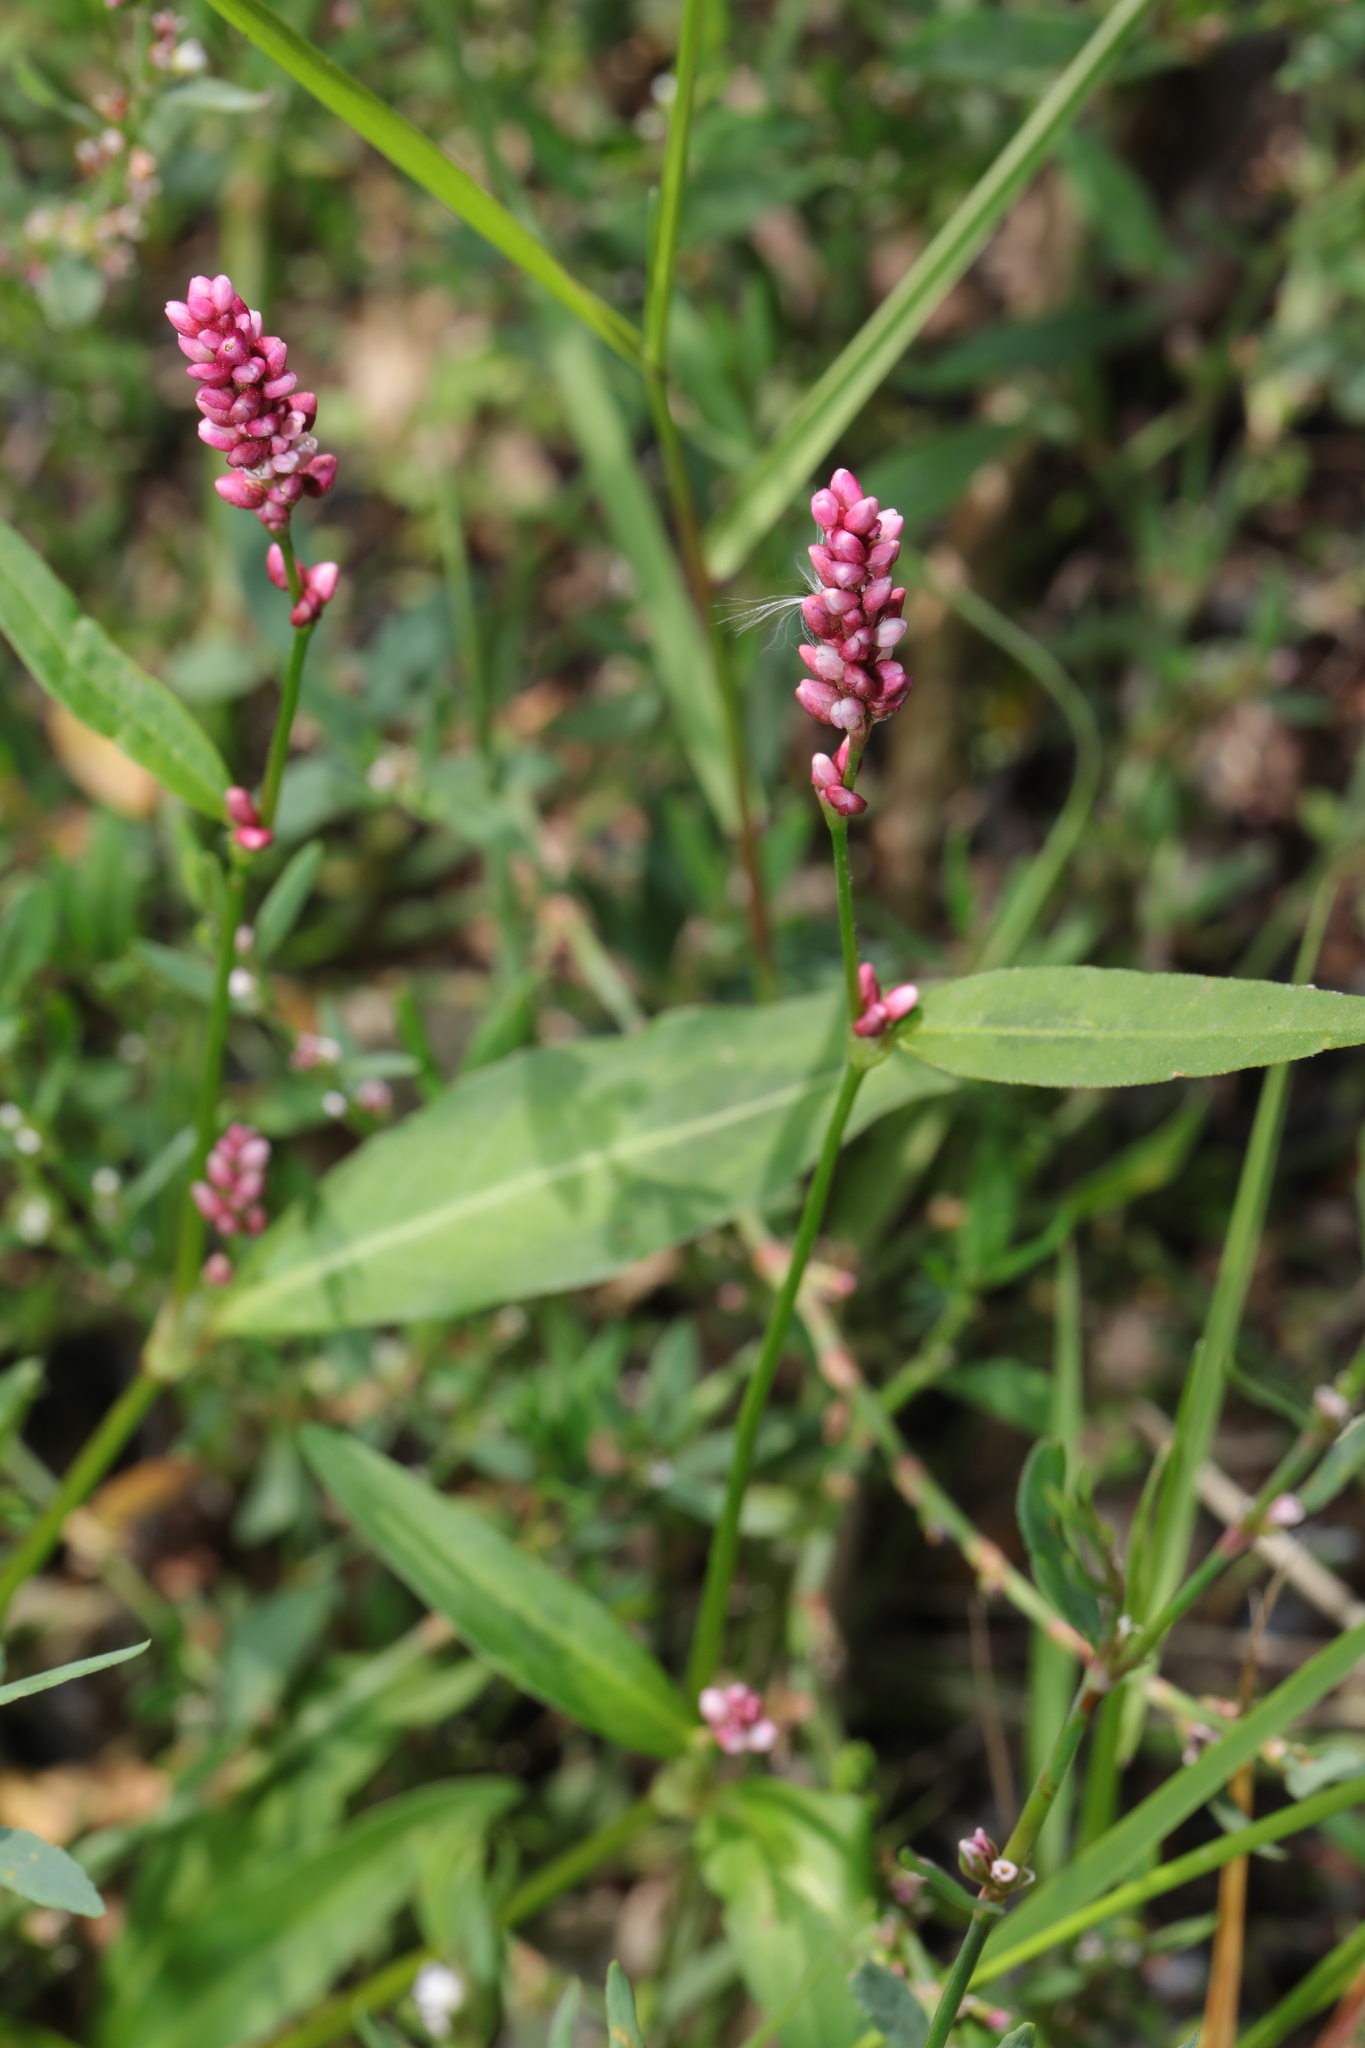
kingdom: Plantae
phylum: Tracheophyta
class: Magnoliopsida
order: Caryophyllales
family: Polygonaceae
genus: Persicaria
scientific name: Persicaria maculosa
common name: Redshank
